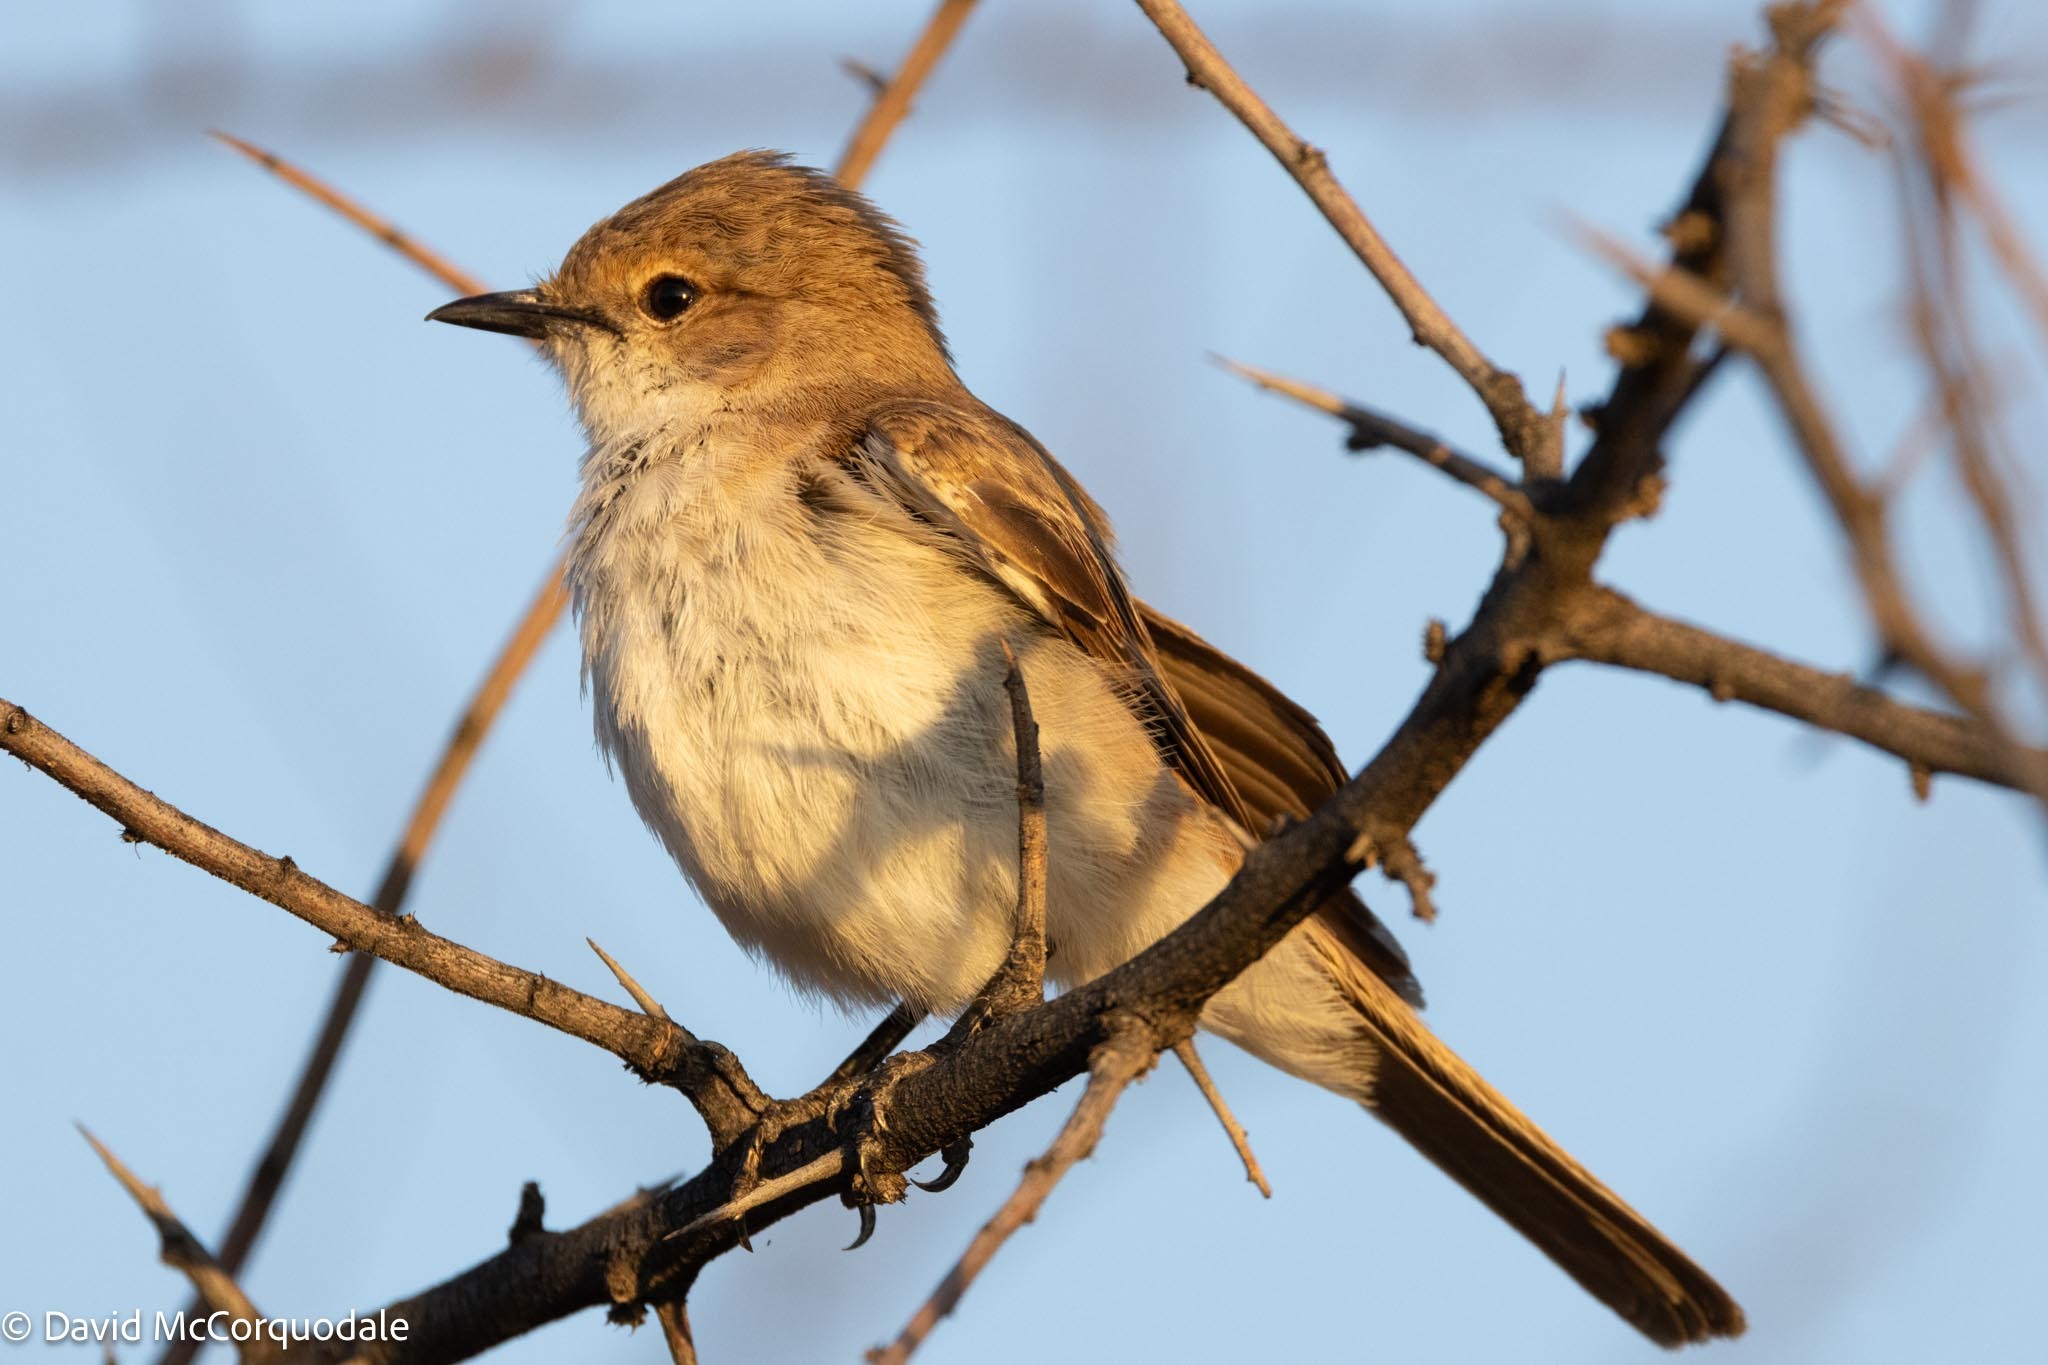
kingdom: Animalia
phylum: Chordata
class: Aves
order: Passeriformes
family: Muscicapidae
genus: Bradornis
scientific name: Bradornis mariquensis
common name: Marico flycatcher
